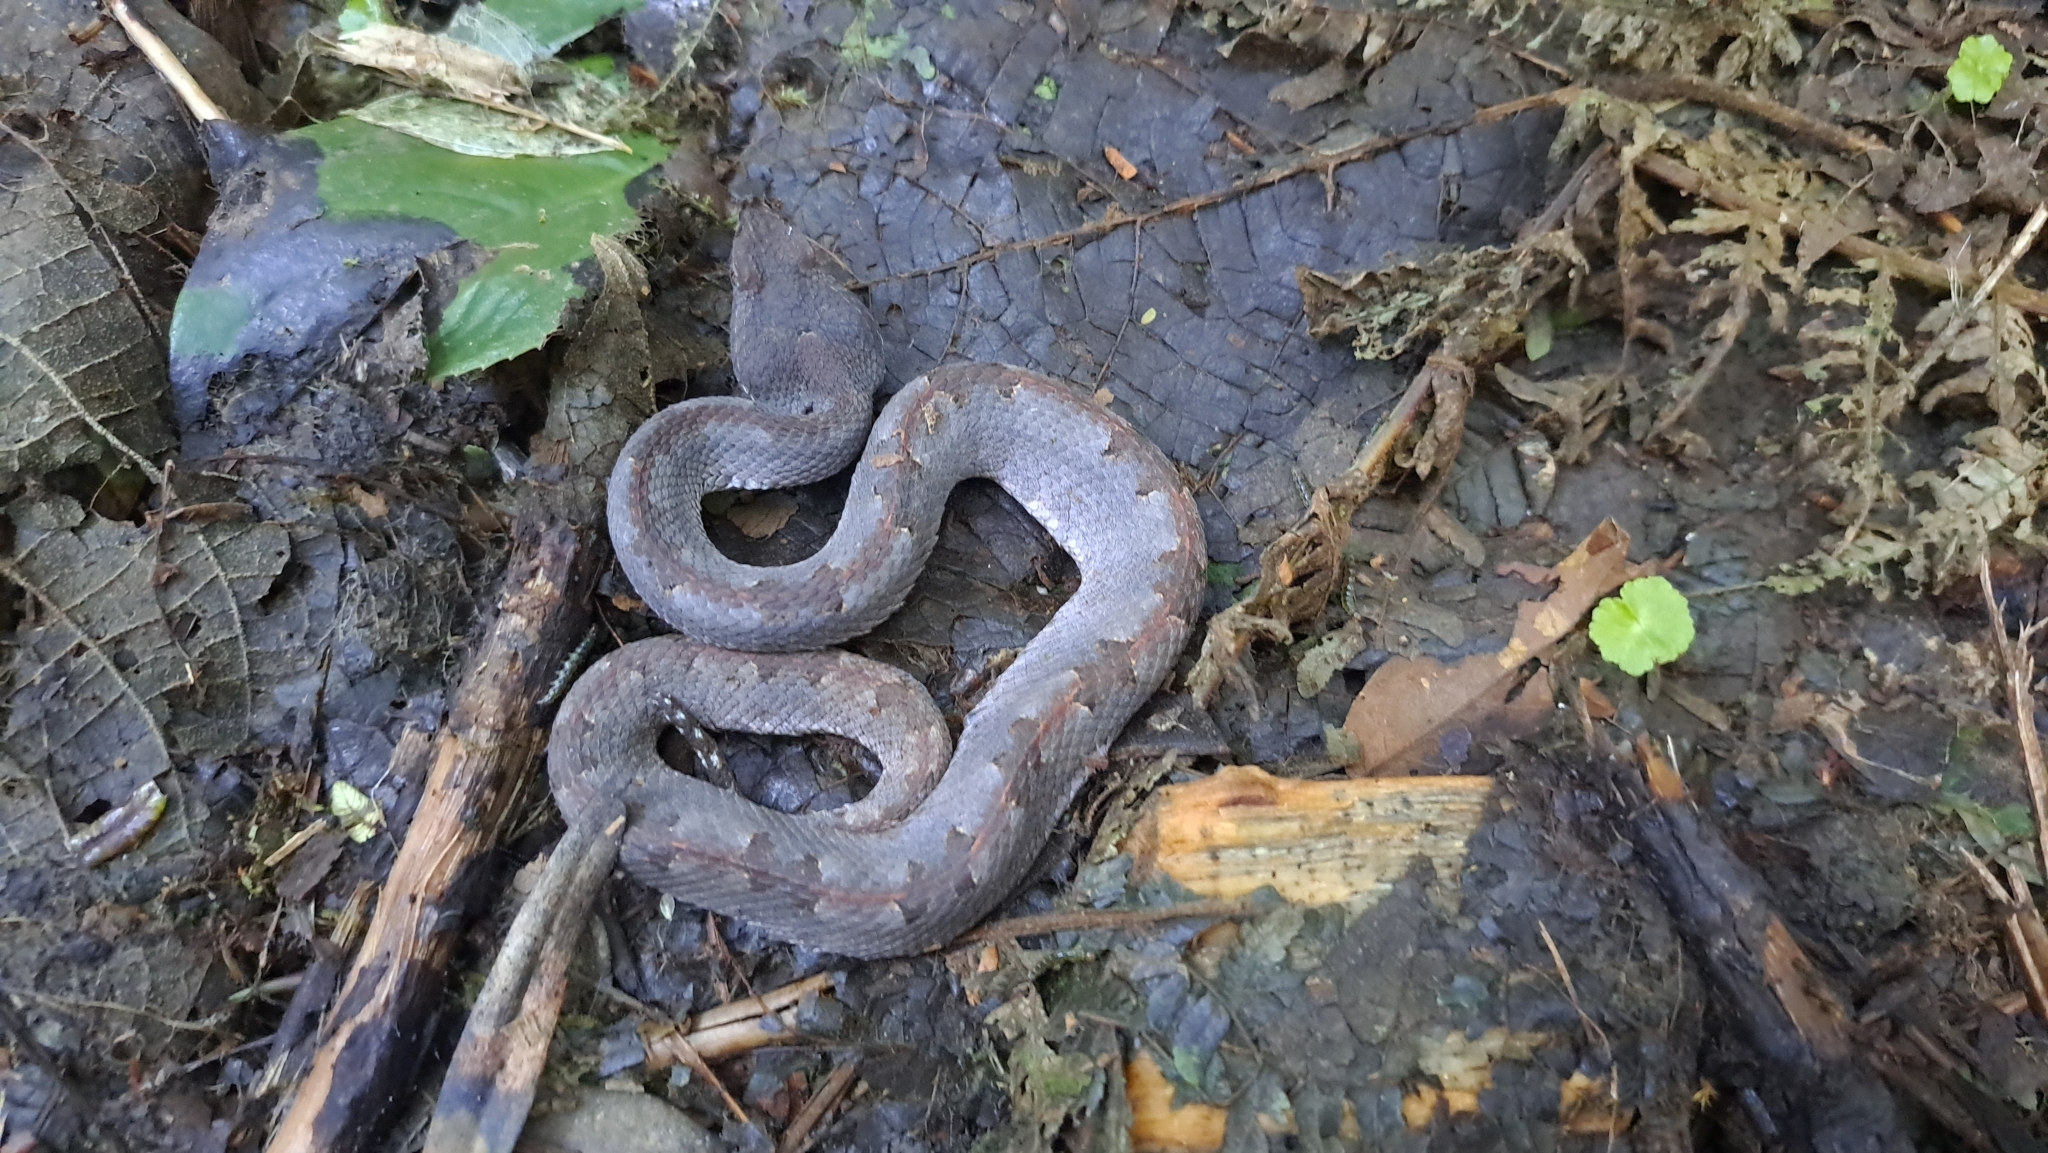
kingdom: Animalia
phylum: Chordata
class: Squamata
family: Viperidae
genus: Porthidium
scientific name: Porthidium nasutum
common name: Hognosed pit viper
